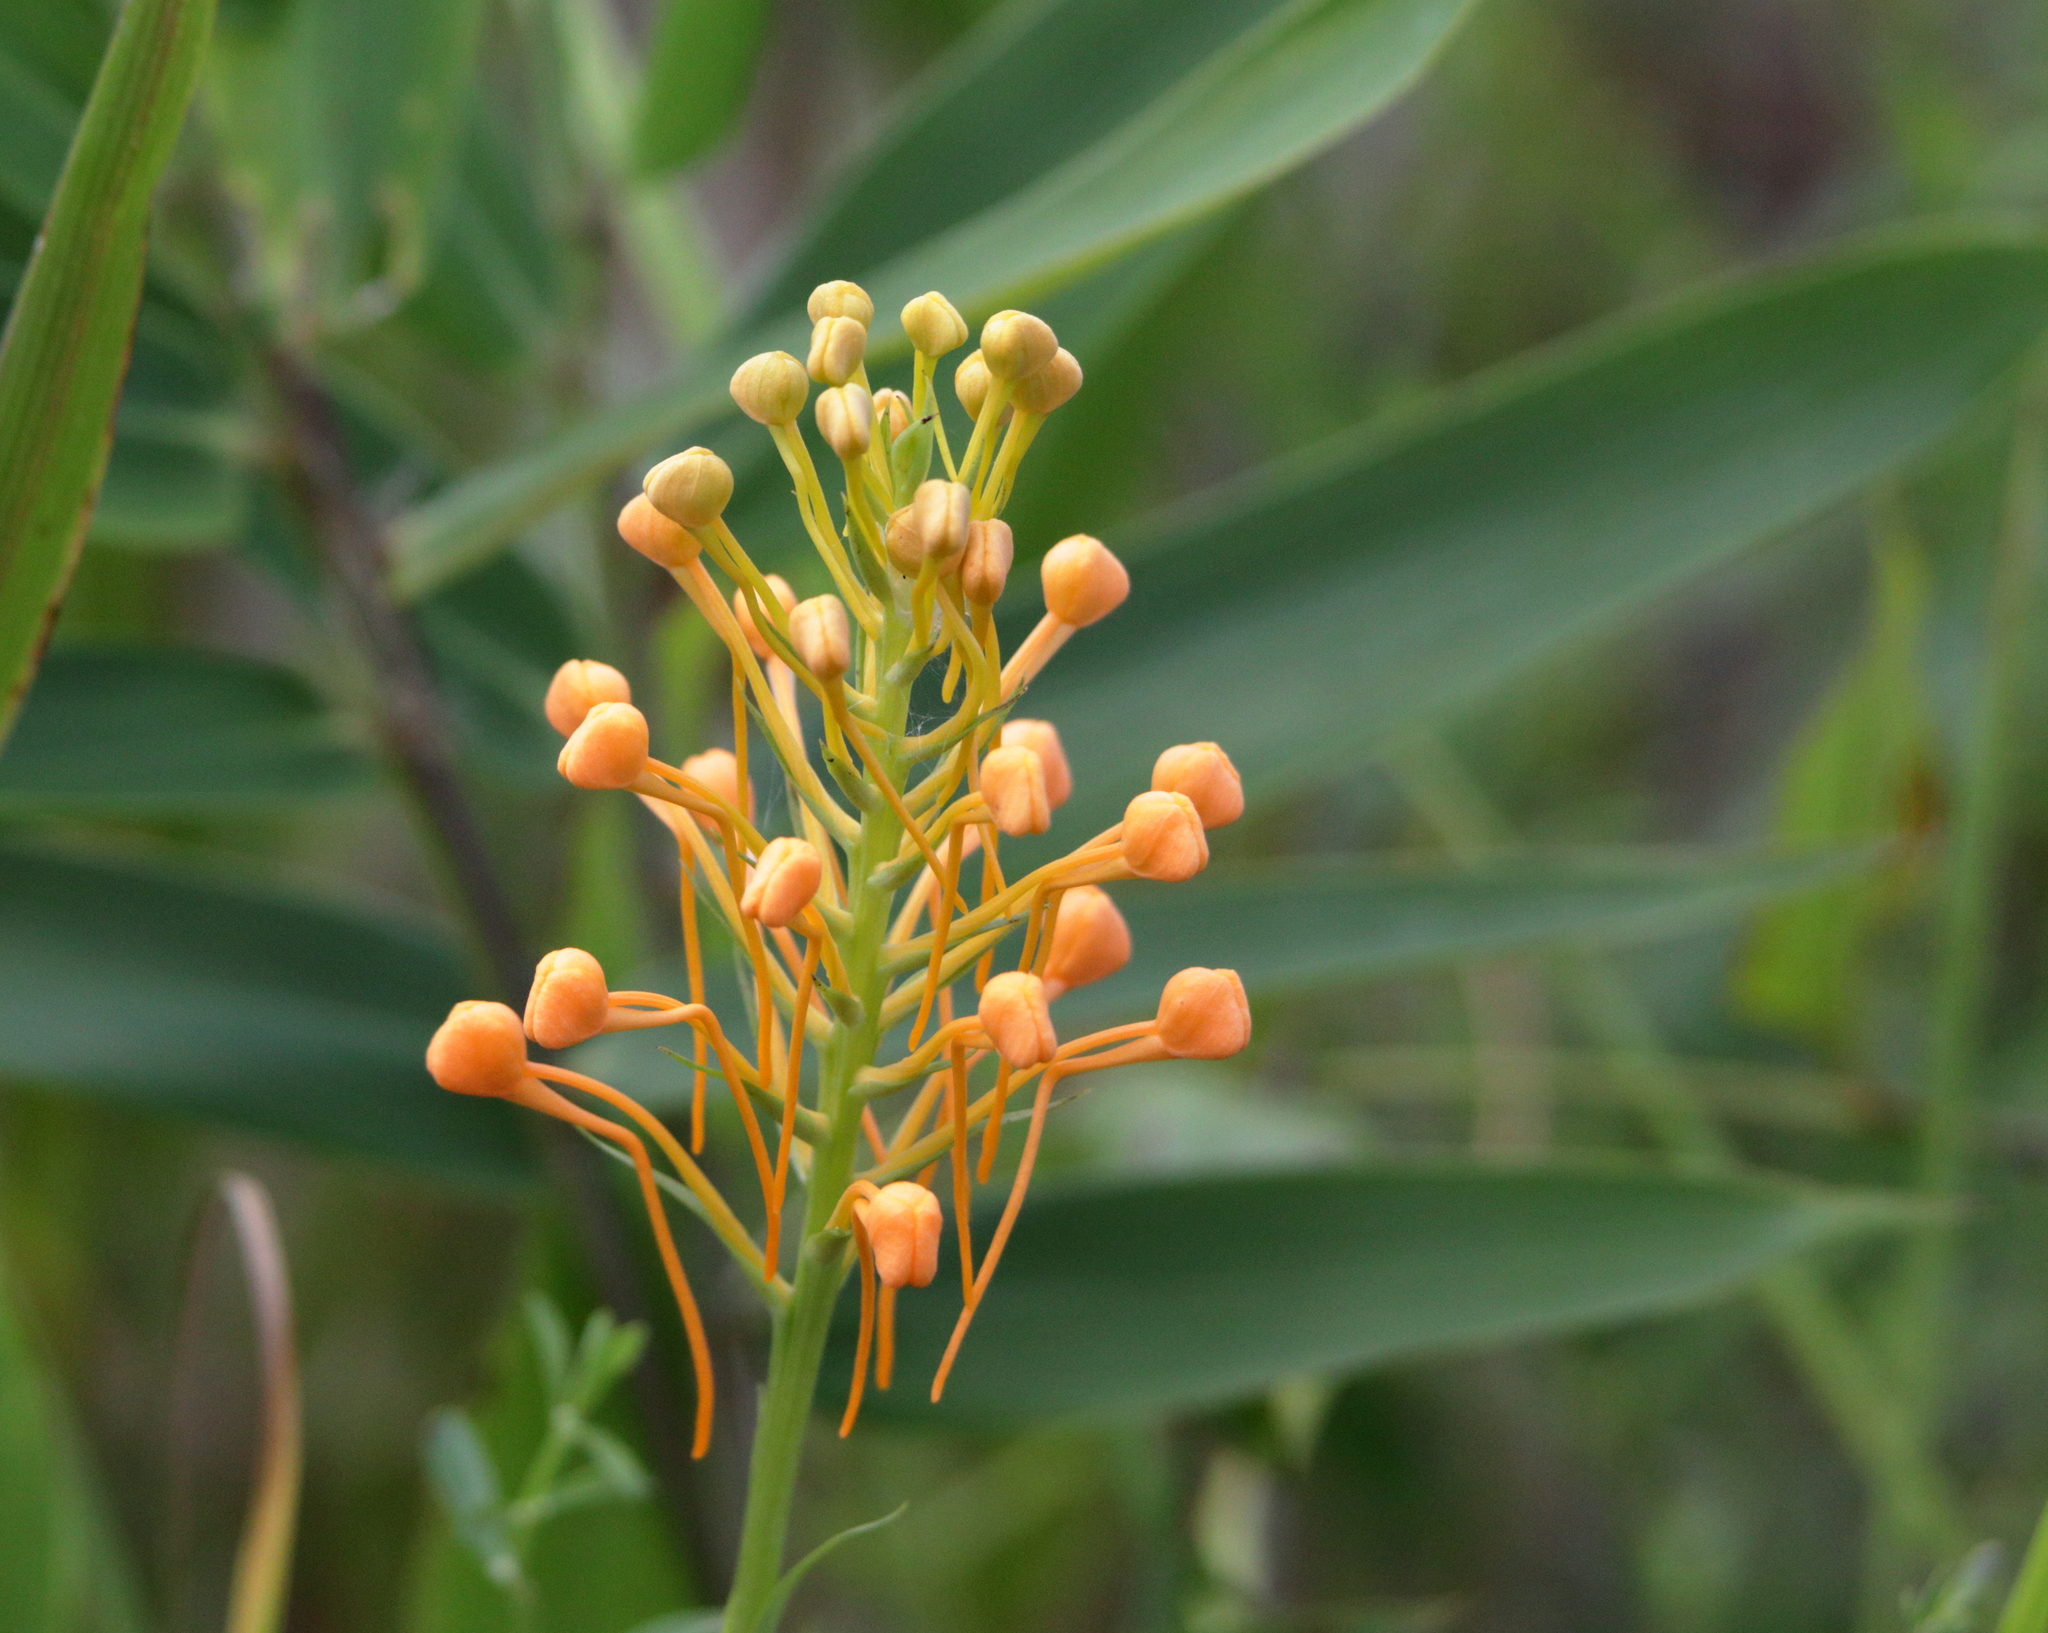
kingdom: Plantae
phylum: Tracheophyta
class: Liliopsida
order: Asparagales
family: Orchidaceae
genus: Platanthera
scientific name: Platanthera ciliaris
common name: Yellow fringed orchid
